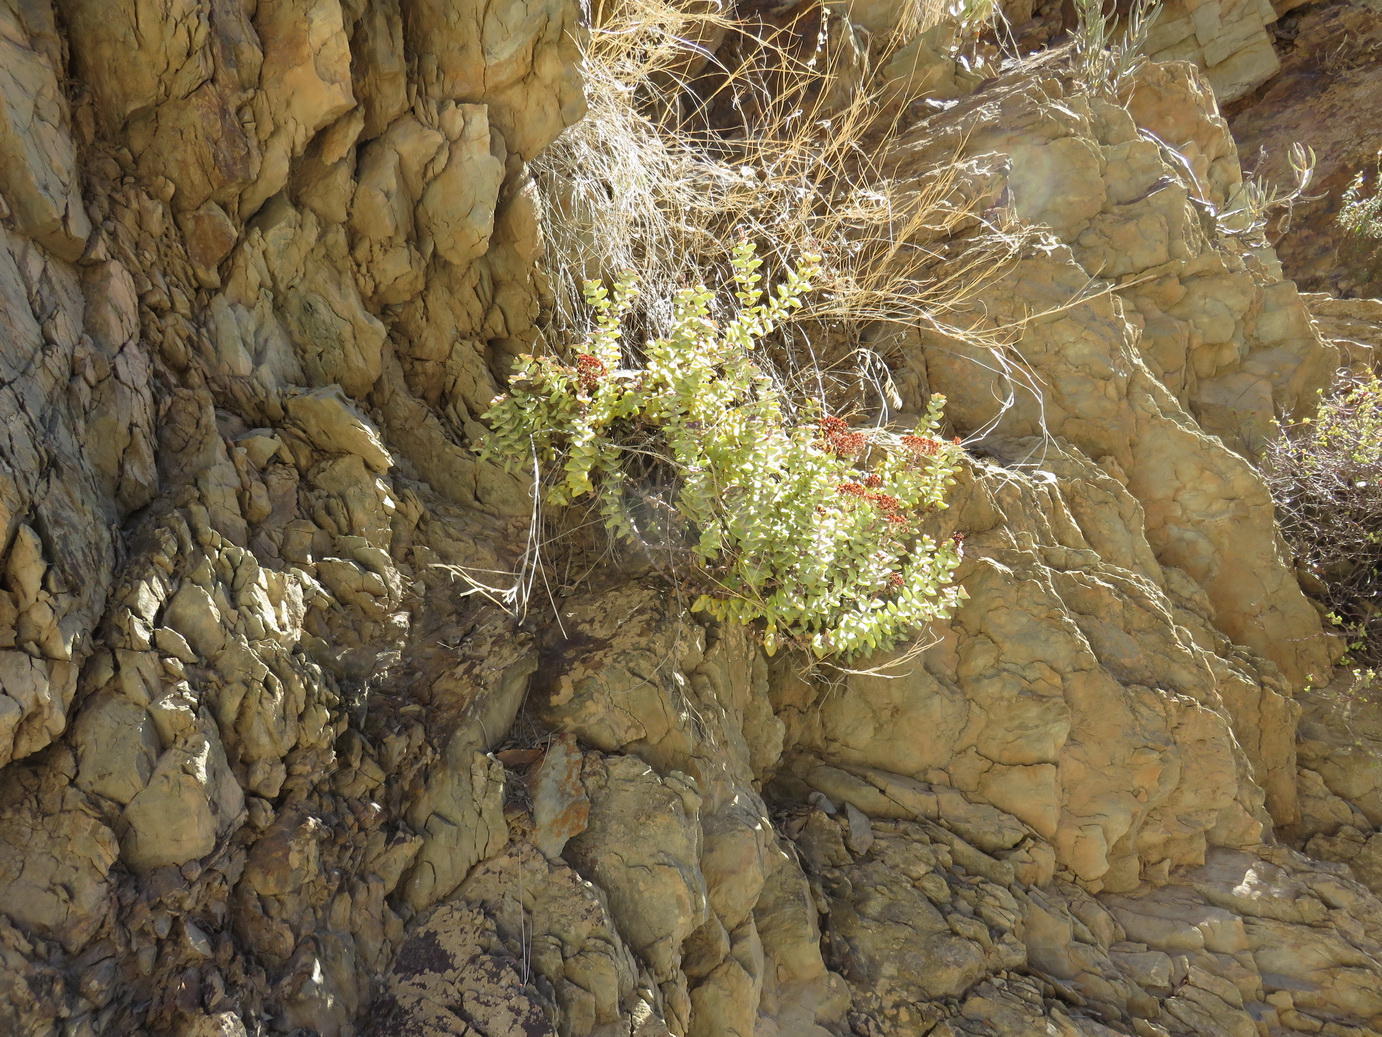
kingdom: Plantae
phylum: Tracheophyta
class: Magnoliopsida
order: Saxifragales
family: Crassulaceae
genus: Crassula
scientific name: Crassula rupestris
